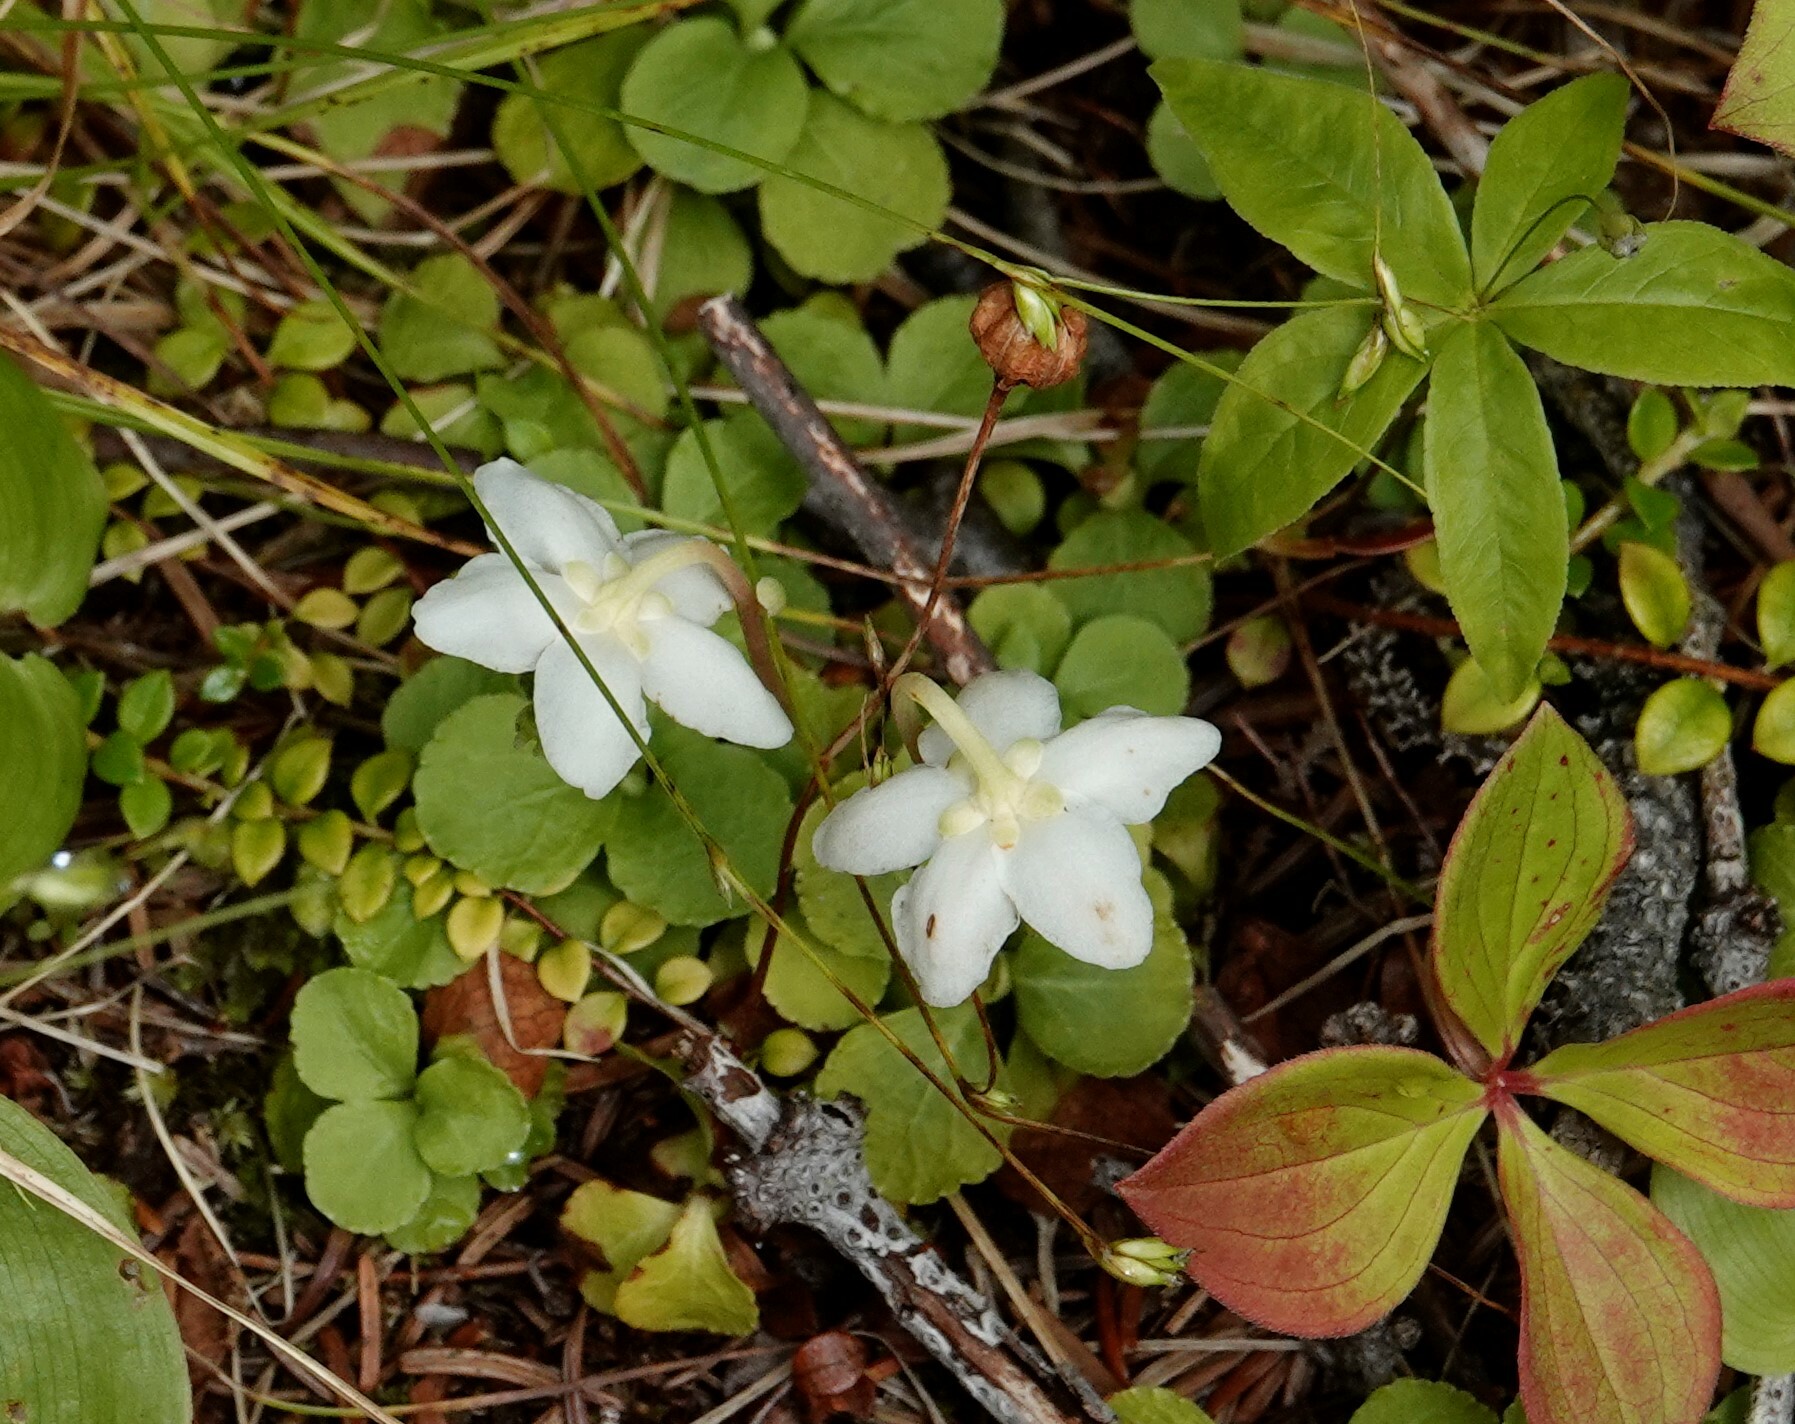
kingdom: Plantae
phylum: Tracheophyta
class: Magnoliopsida
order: Ericales
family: Ericaceae
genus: Moneses
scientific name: Moneses uniflora
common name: One-flowered wintergreen
